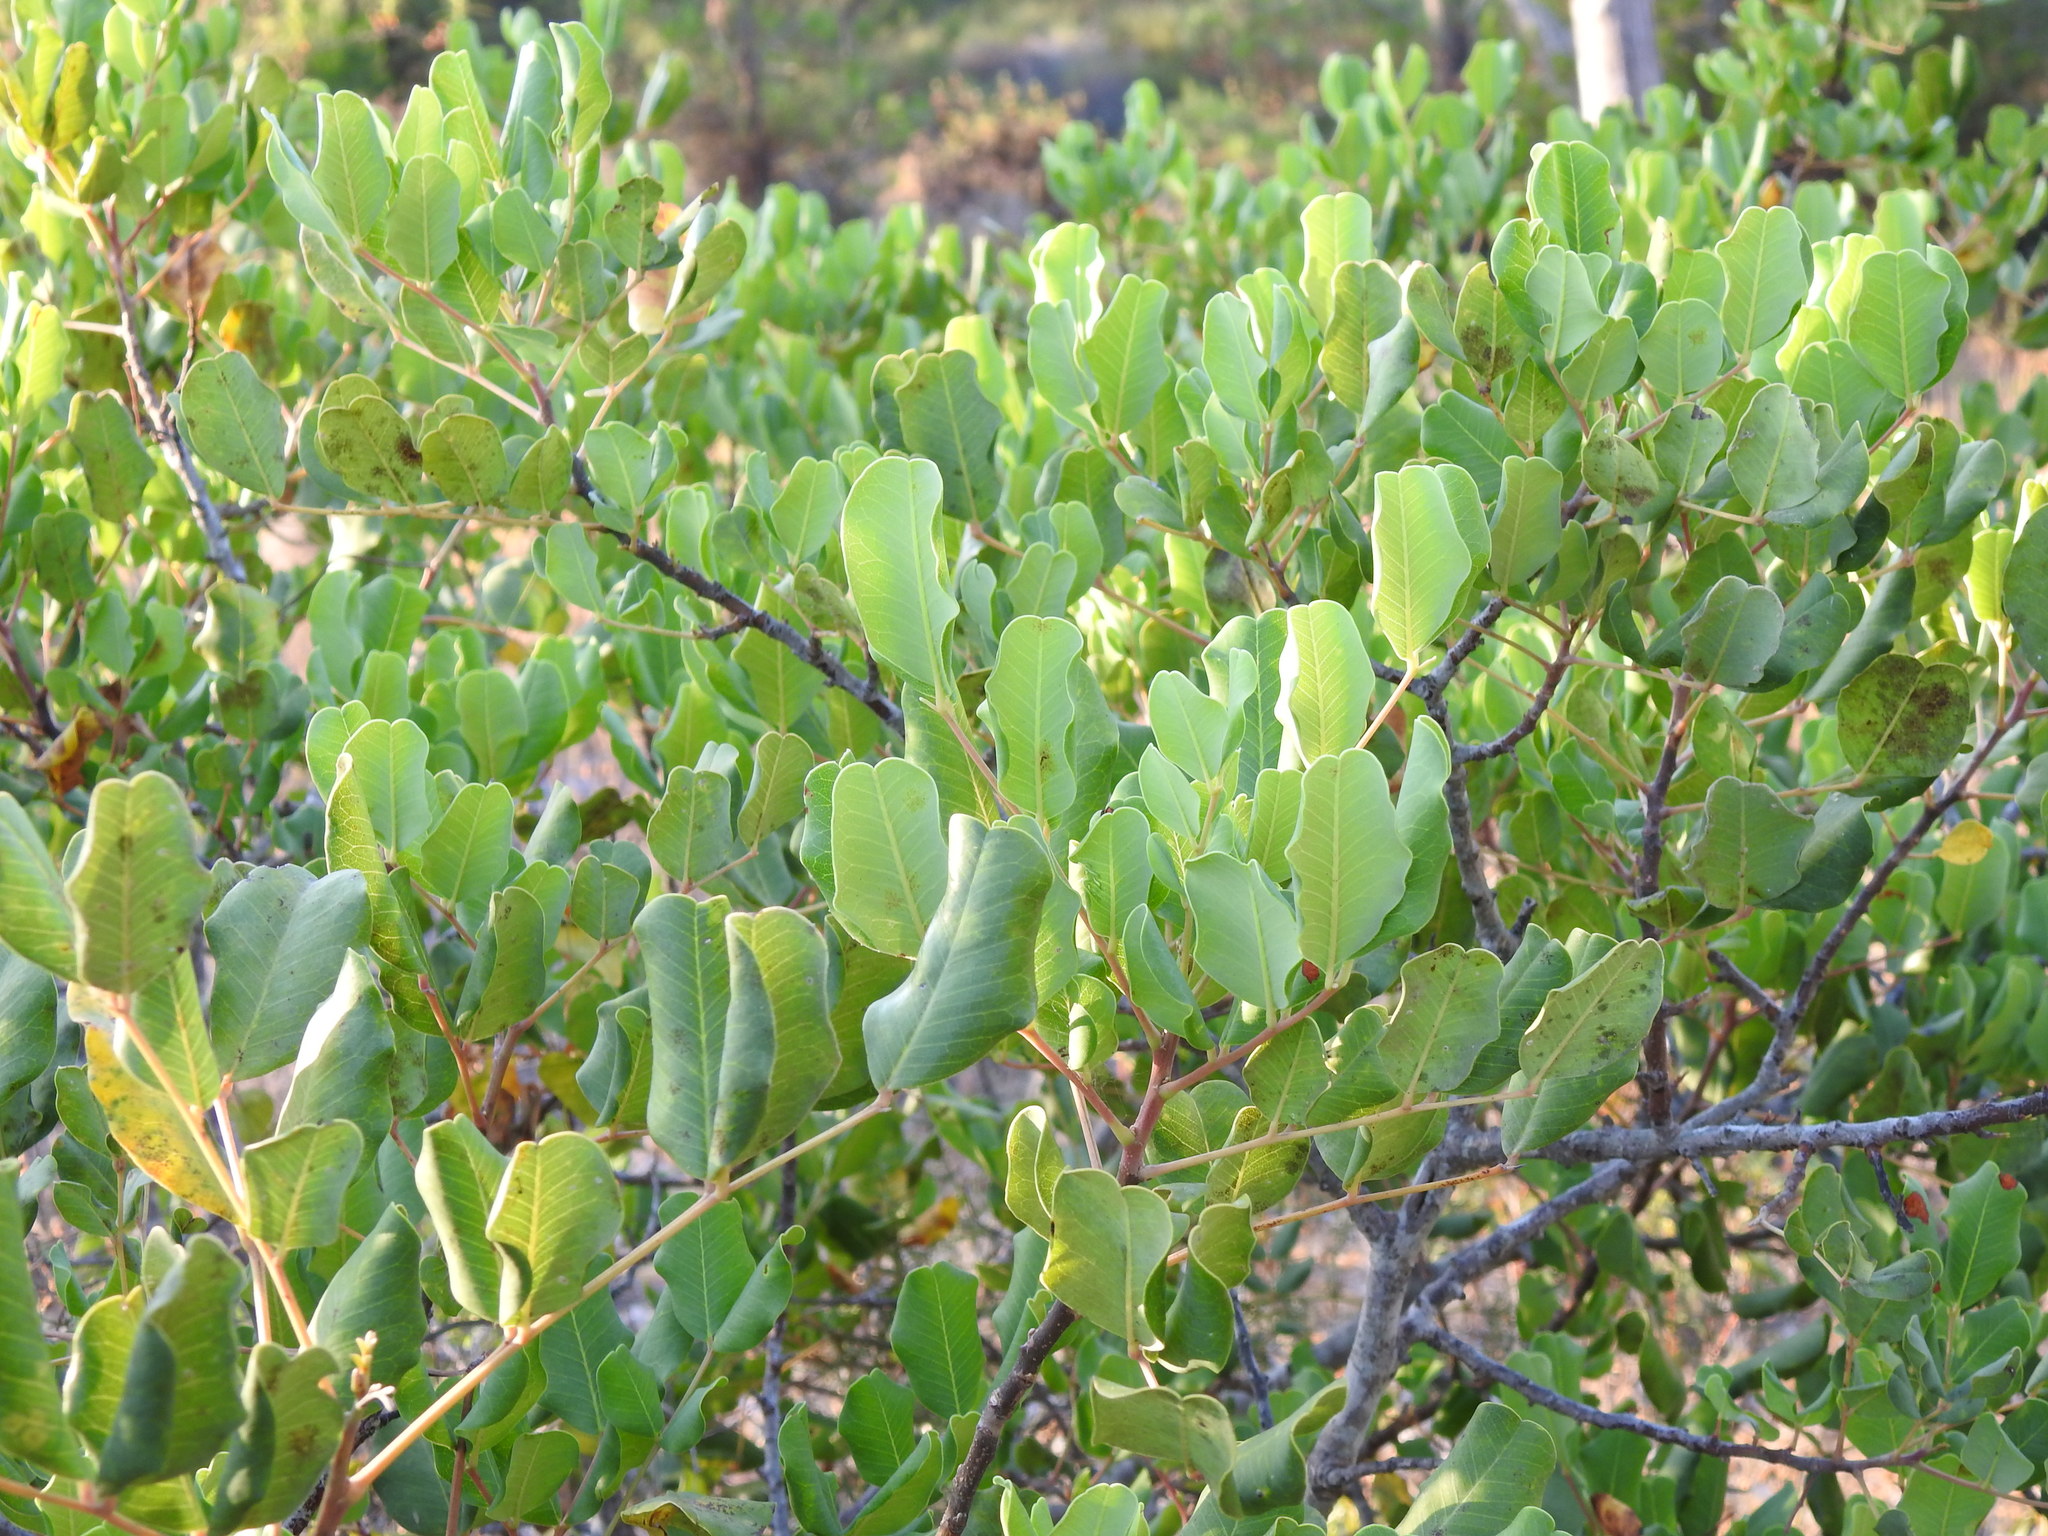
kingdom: Plantae
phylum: Tracheophyta
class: Magnoliopsida
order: Fabales
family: Fabaceae
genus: Ceratonia
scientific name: Ceratonia siliqua
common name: Carob
